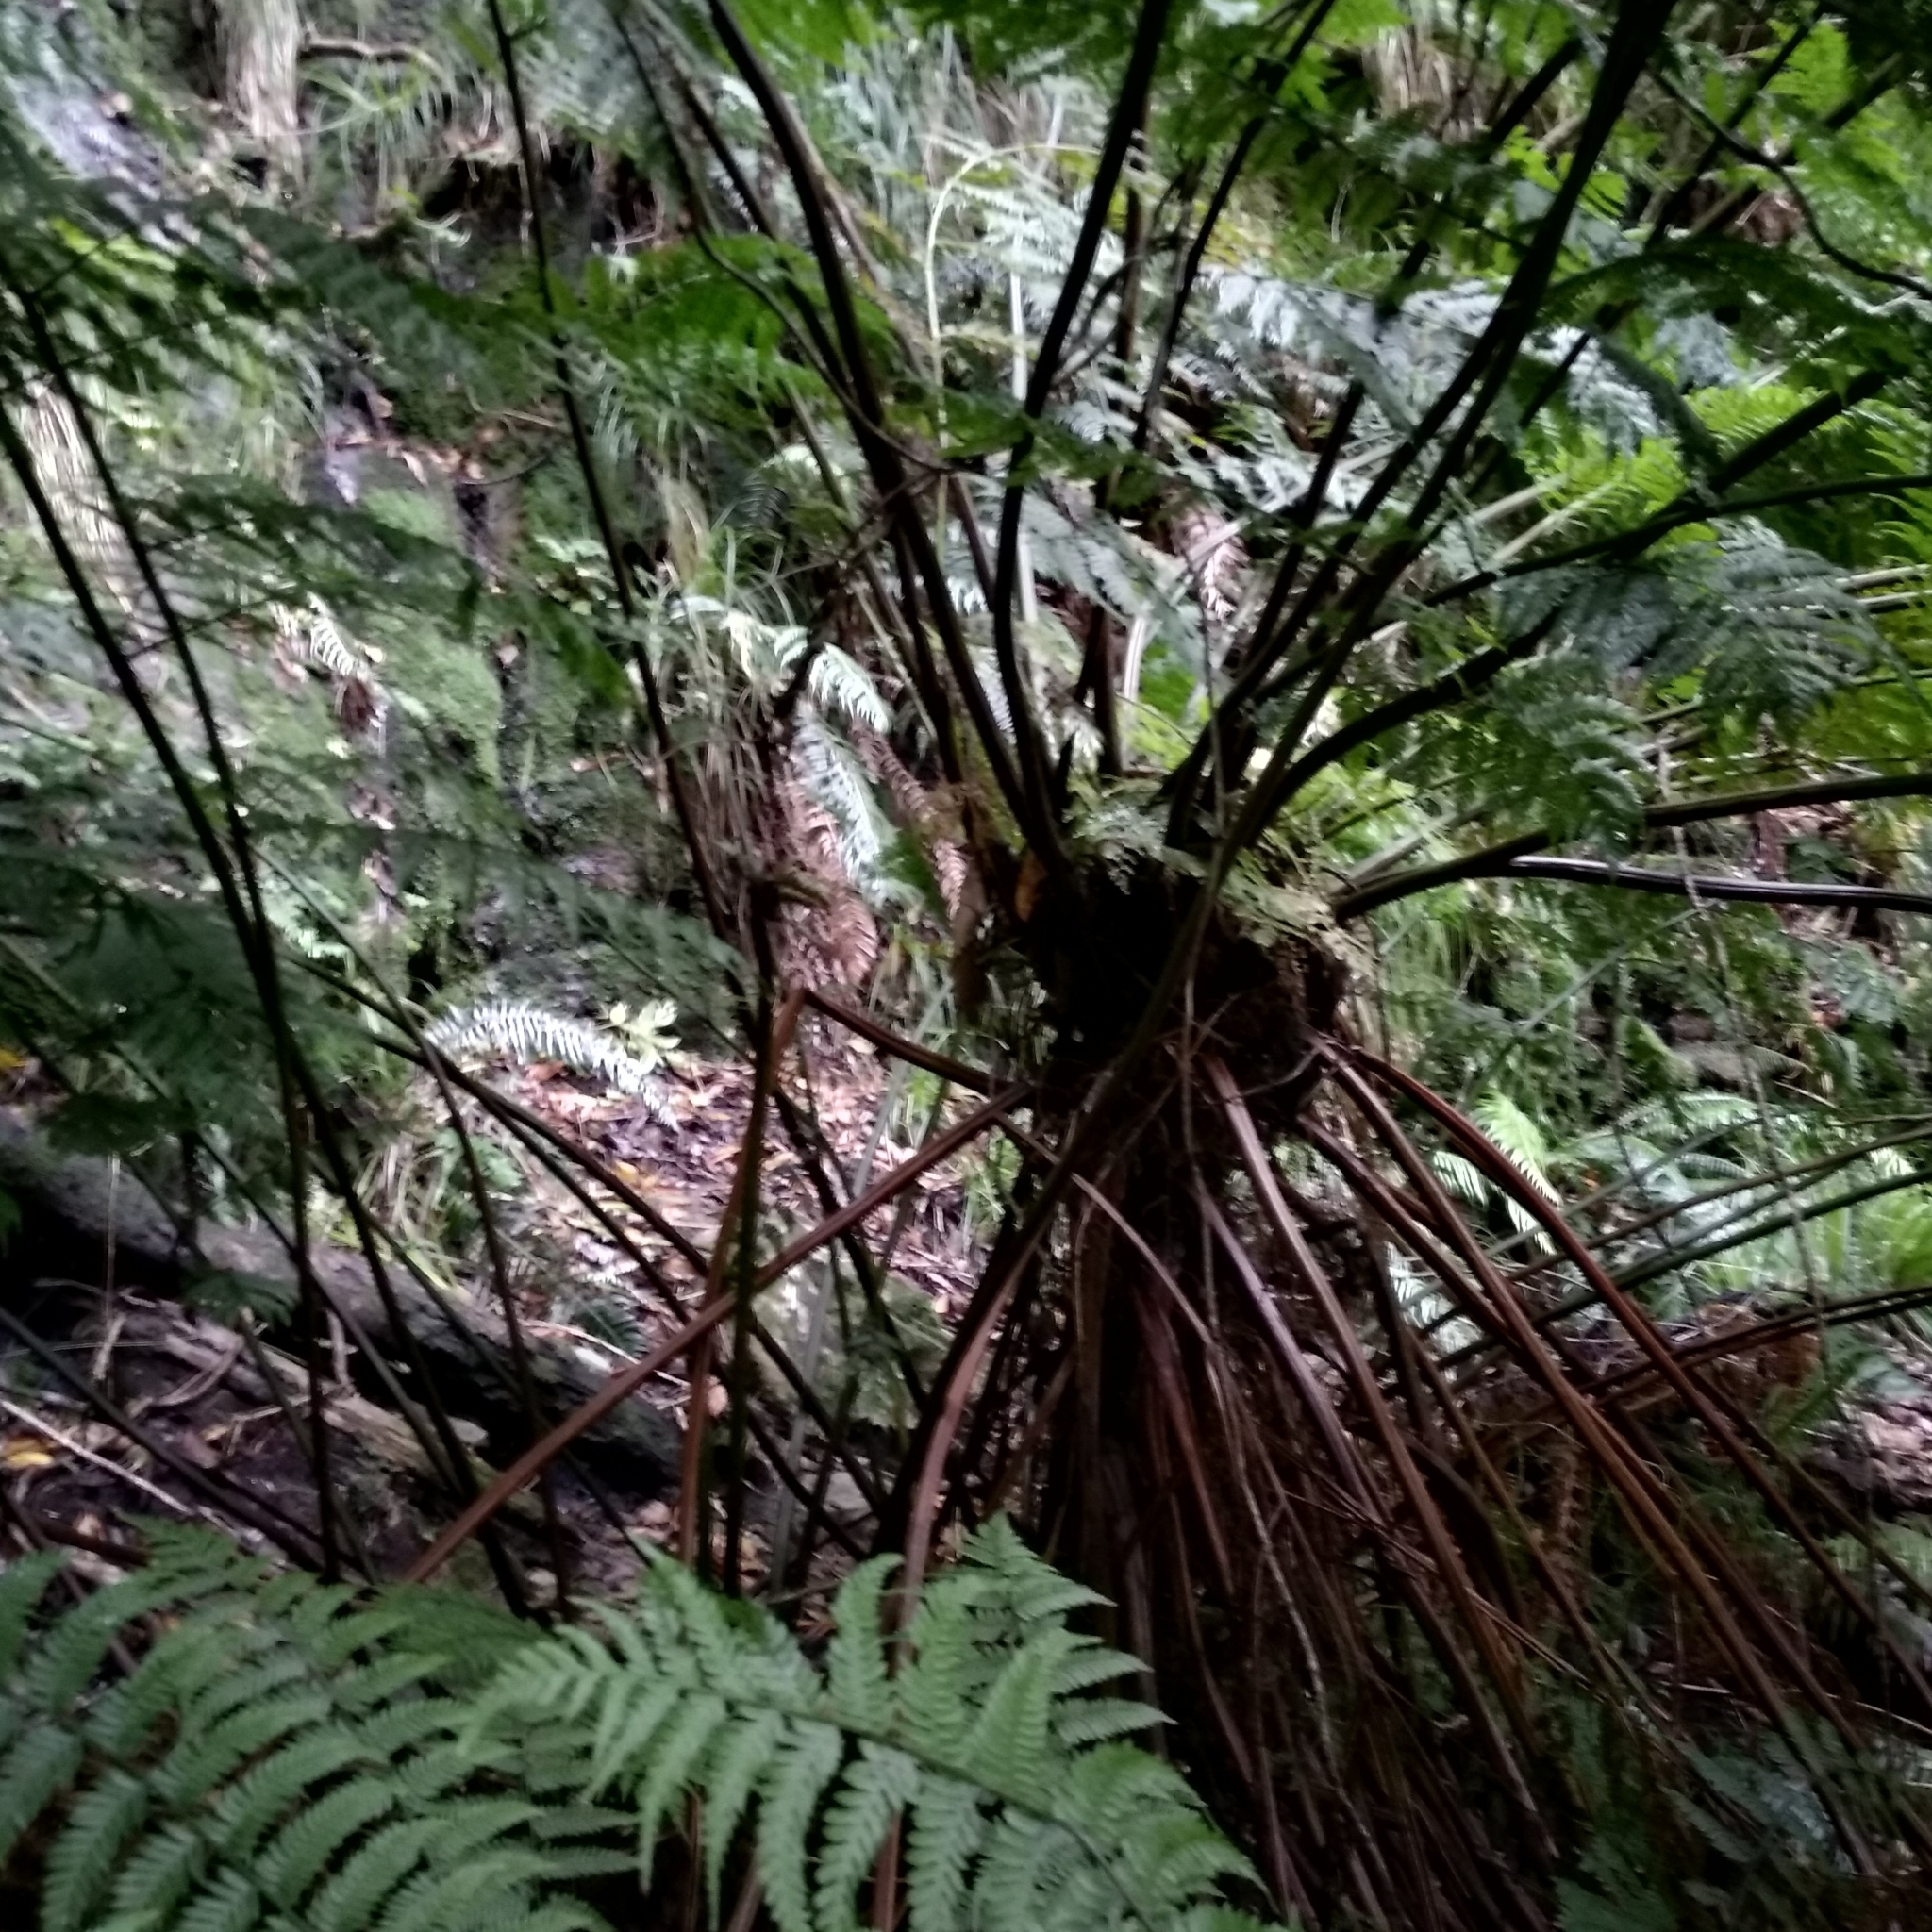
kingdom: Plantae
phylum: Tracheophyta
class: Polypodiopsida
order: Cyatheales
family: Cyatheaceae
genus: Gymnosphaera
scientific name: Gymnosphaera capensis
